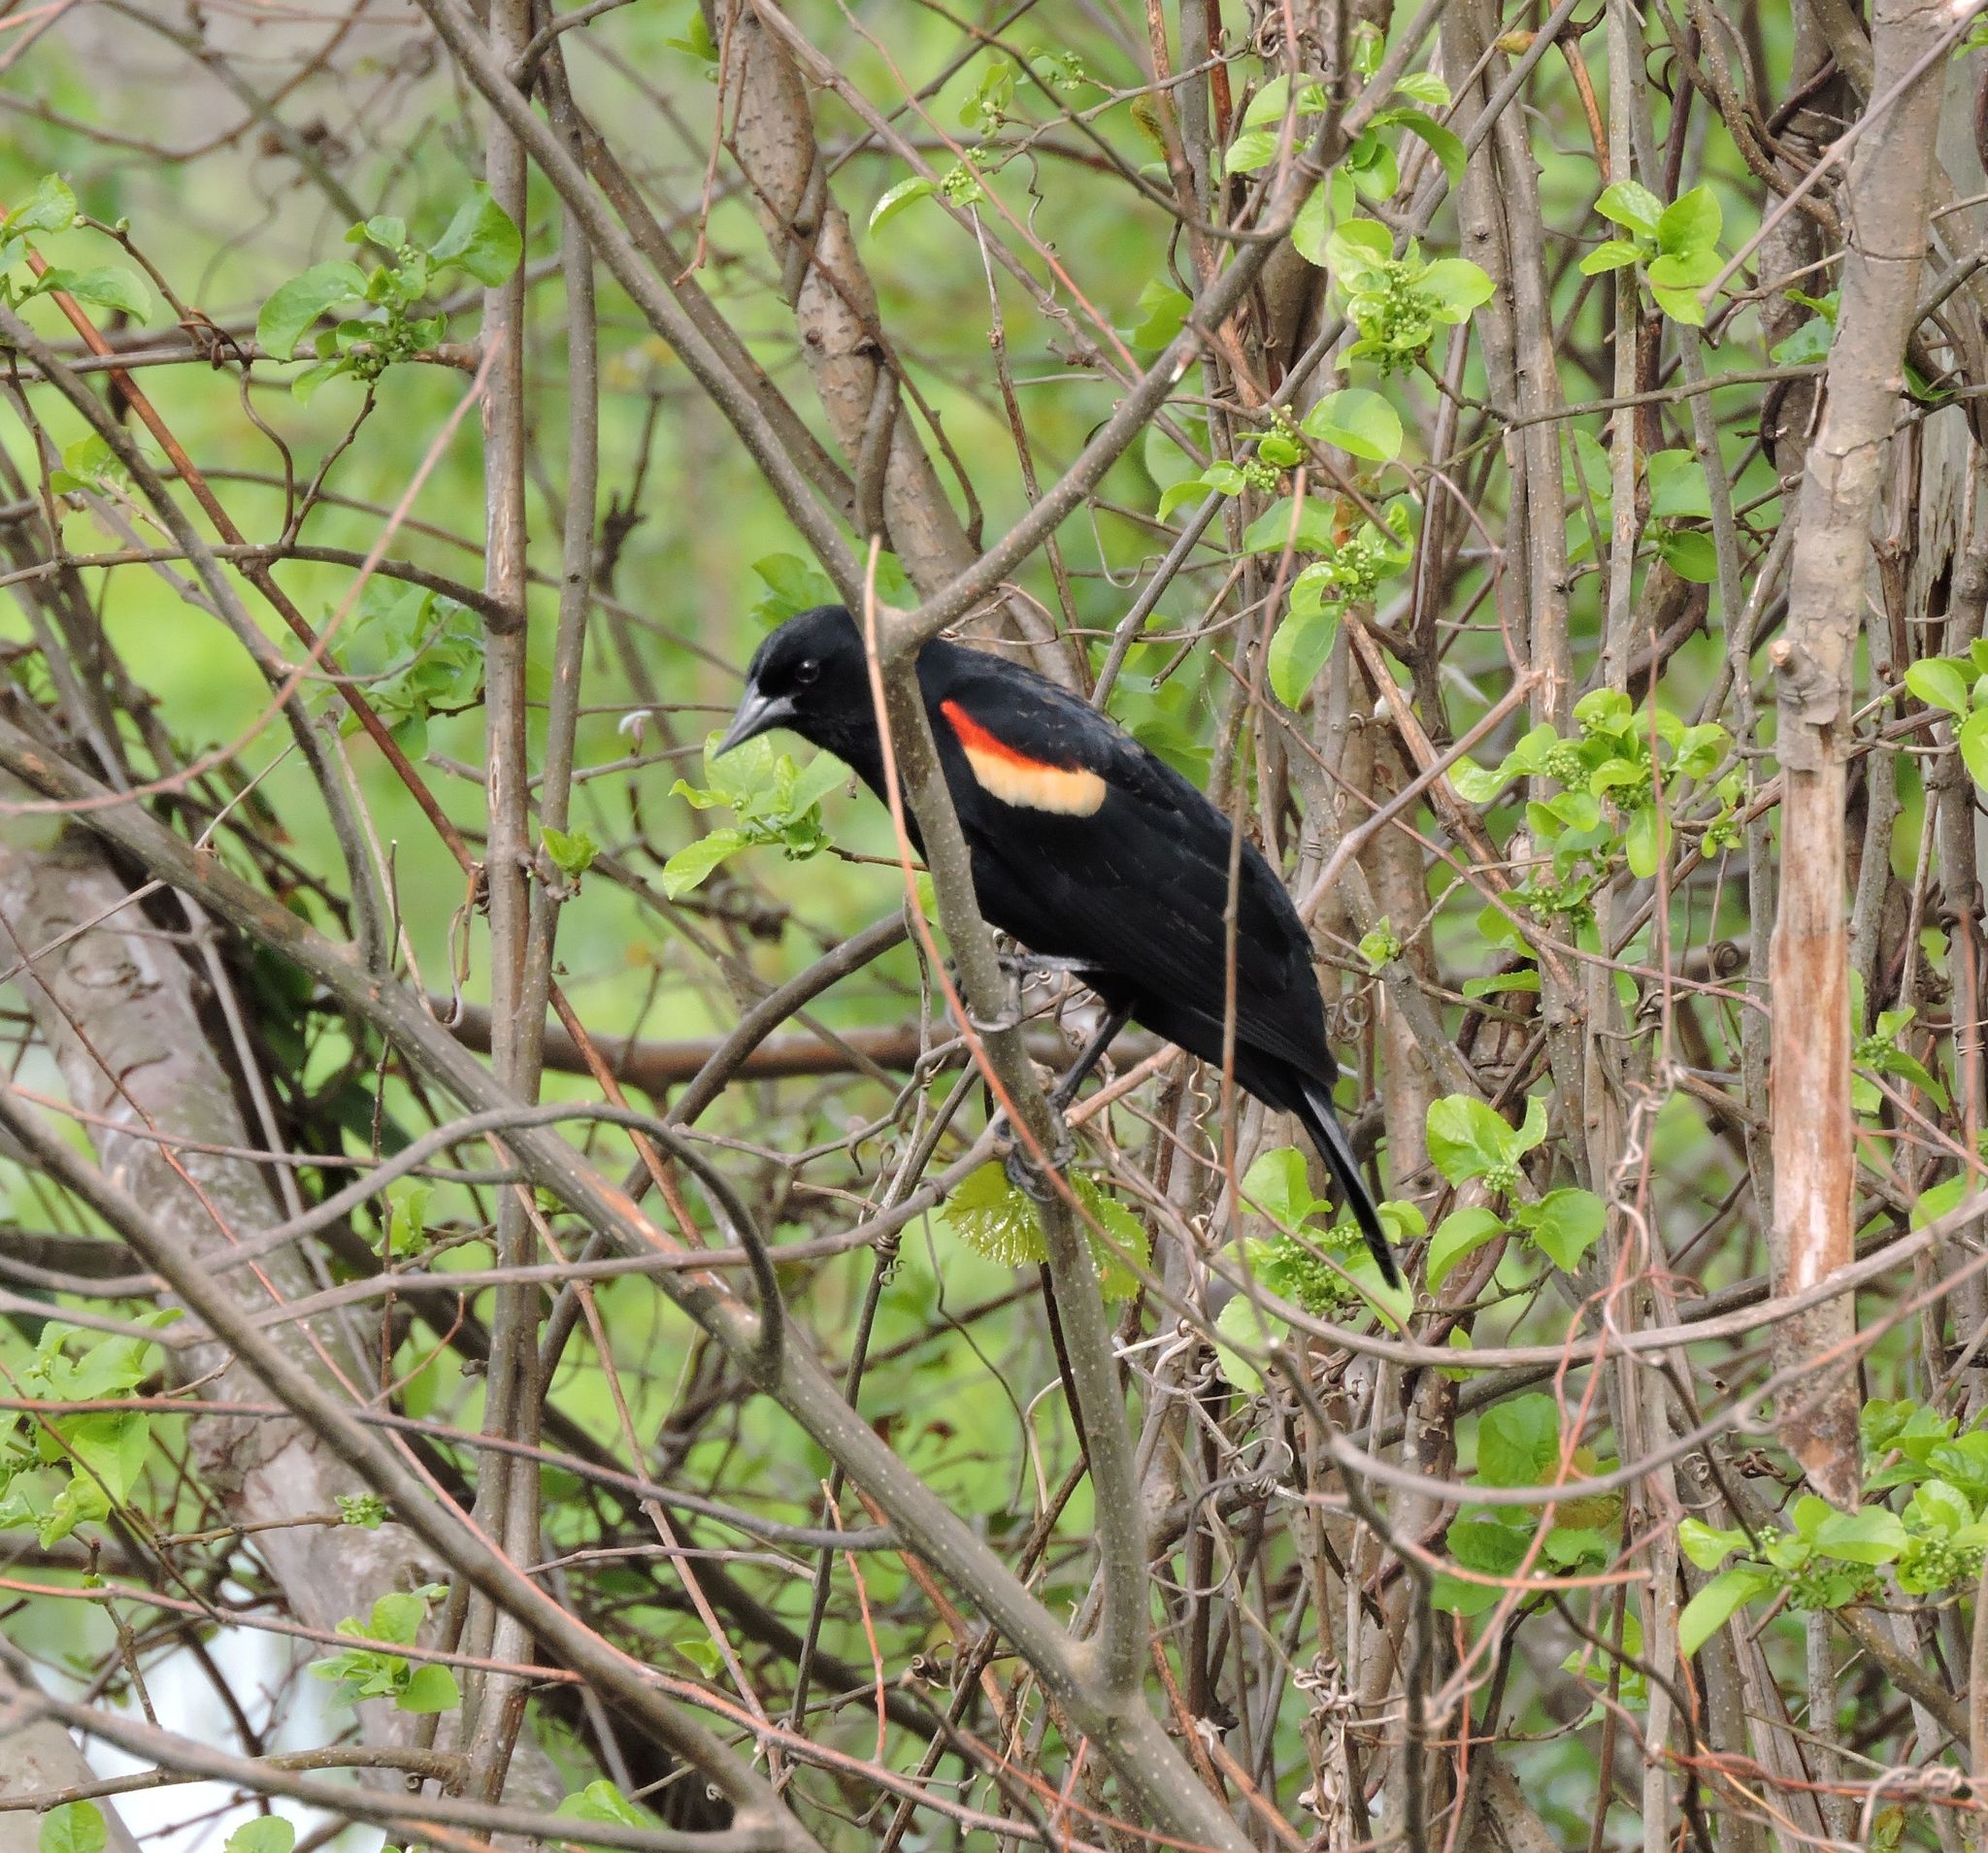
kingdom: Animalia
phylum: Chordata
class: Aves
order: Passeriformes
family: Icteridae
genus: Agelaius
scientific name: Agelaius phoeniceus
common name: Red-winged blackbird
